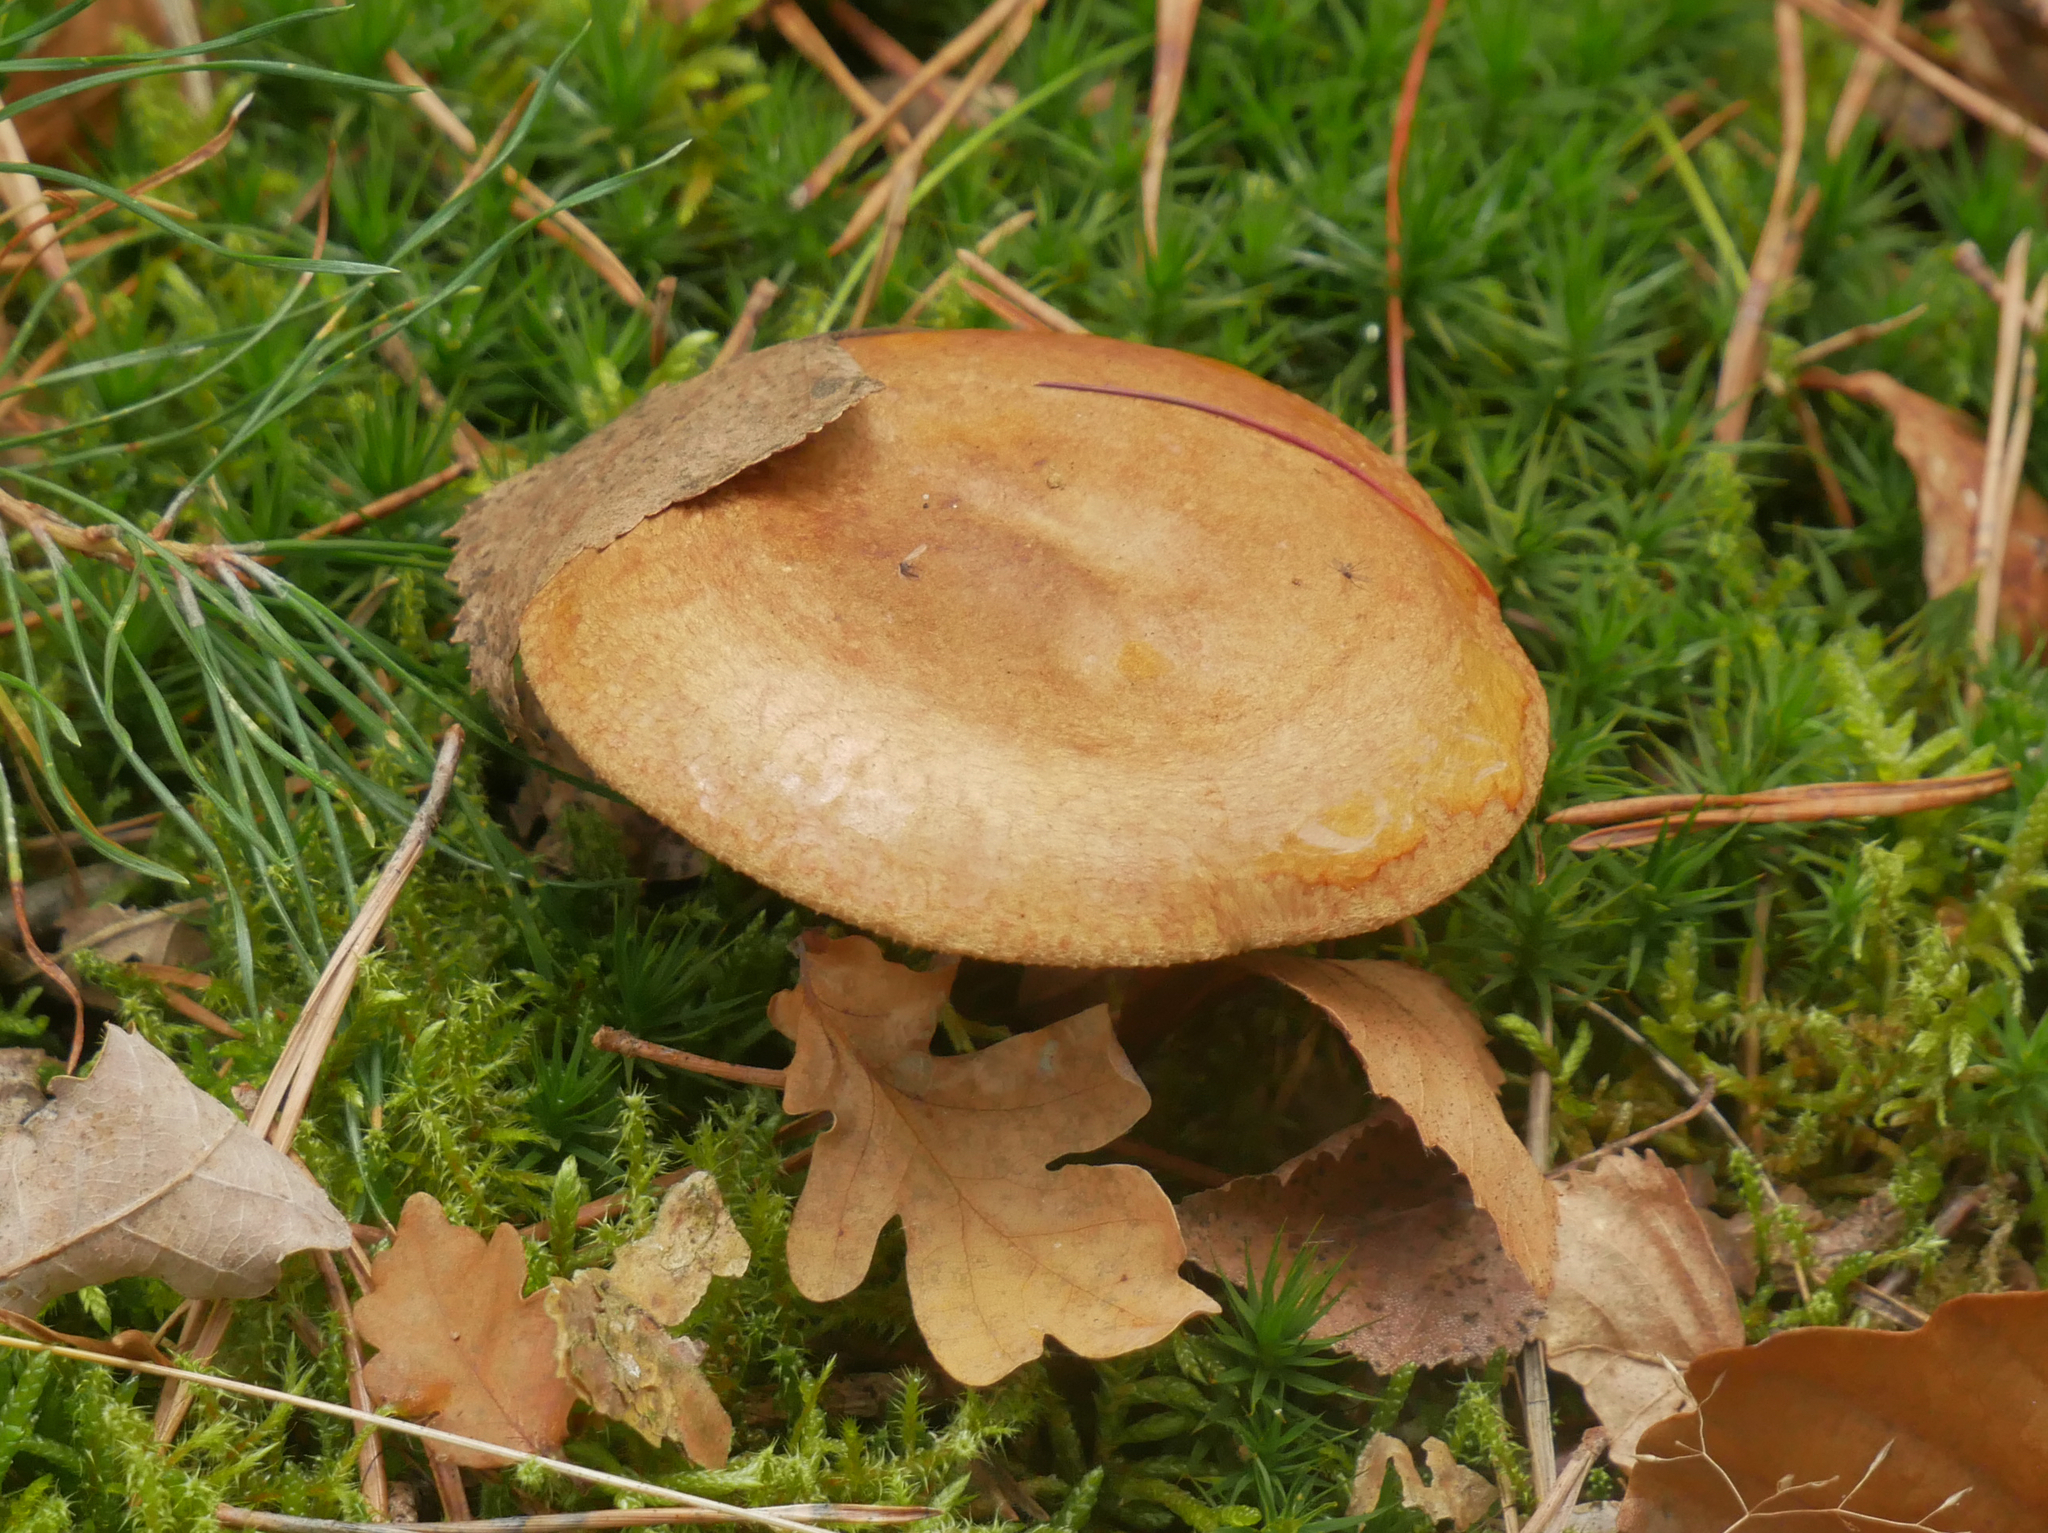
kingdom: Fungi
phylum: Basidiomycota
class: Agaricomycetes
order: Boletales
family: Paxillaceae
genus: Paxillus
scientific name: Paxillus involutus
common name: Brown roll rim
